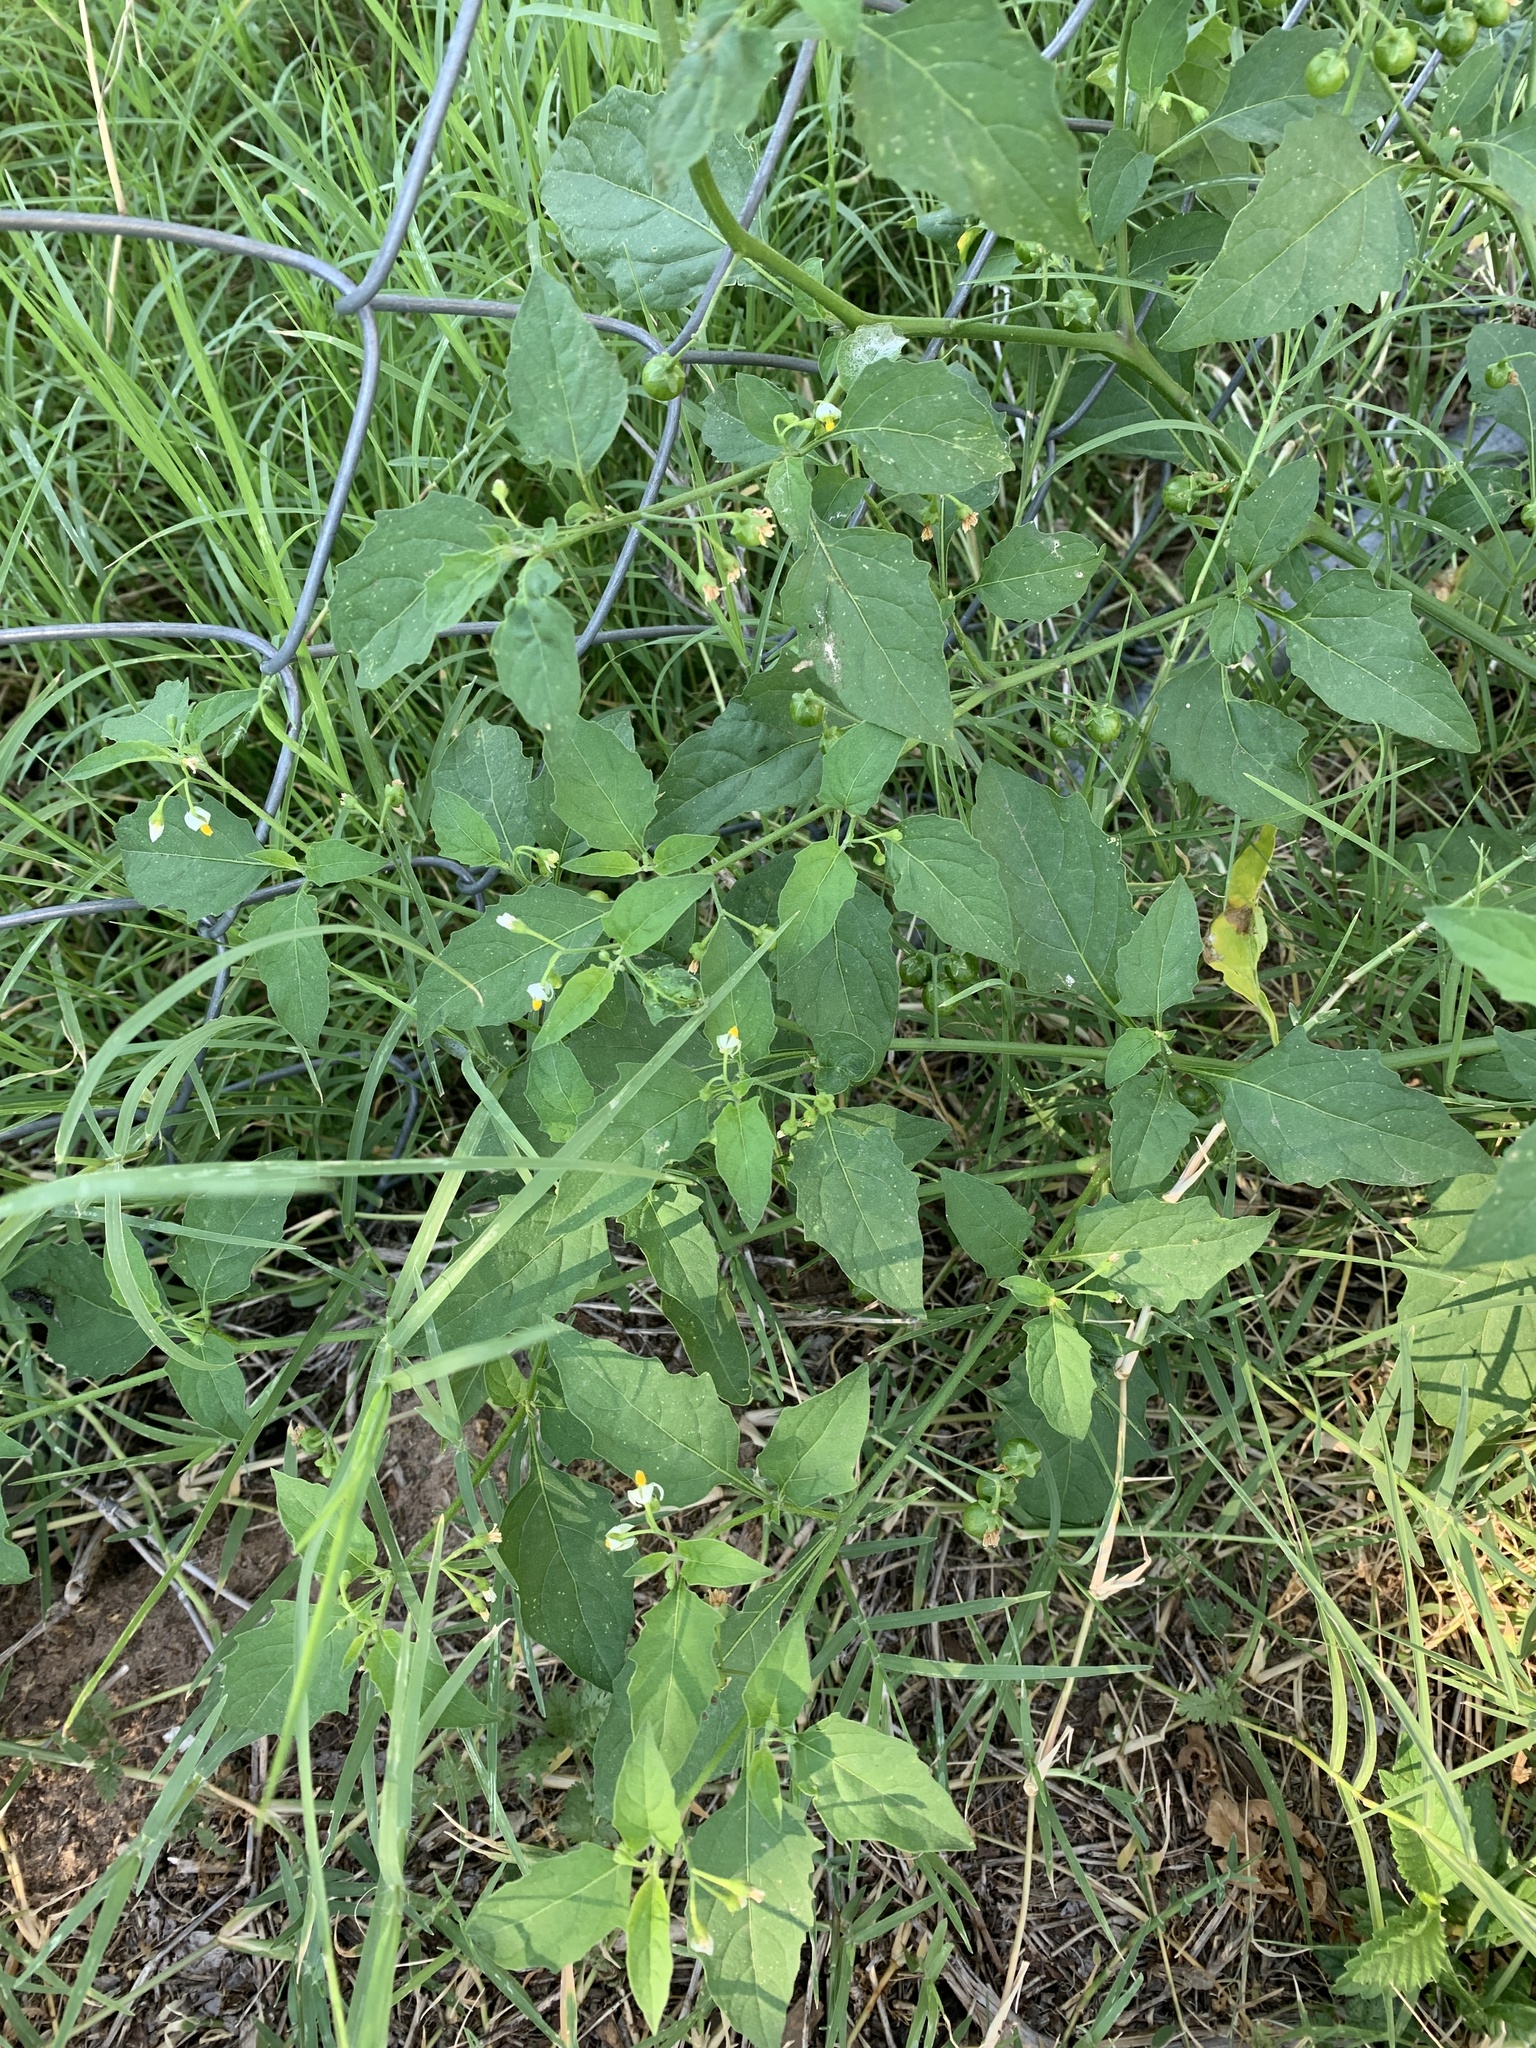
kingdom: Plantae
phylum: Tracheophyta
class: Magnoliopsida
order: Solanales
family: Solanaceae
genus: Solanum
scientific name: Solanum emulans
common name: Eastern black nightshade
